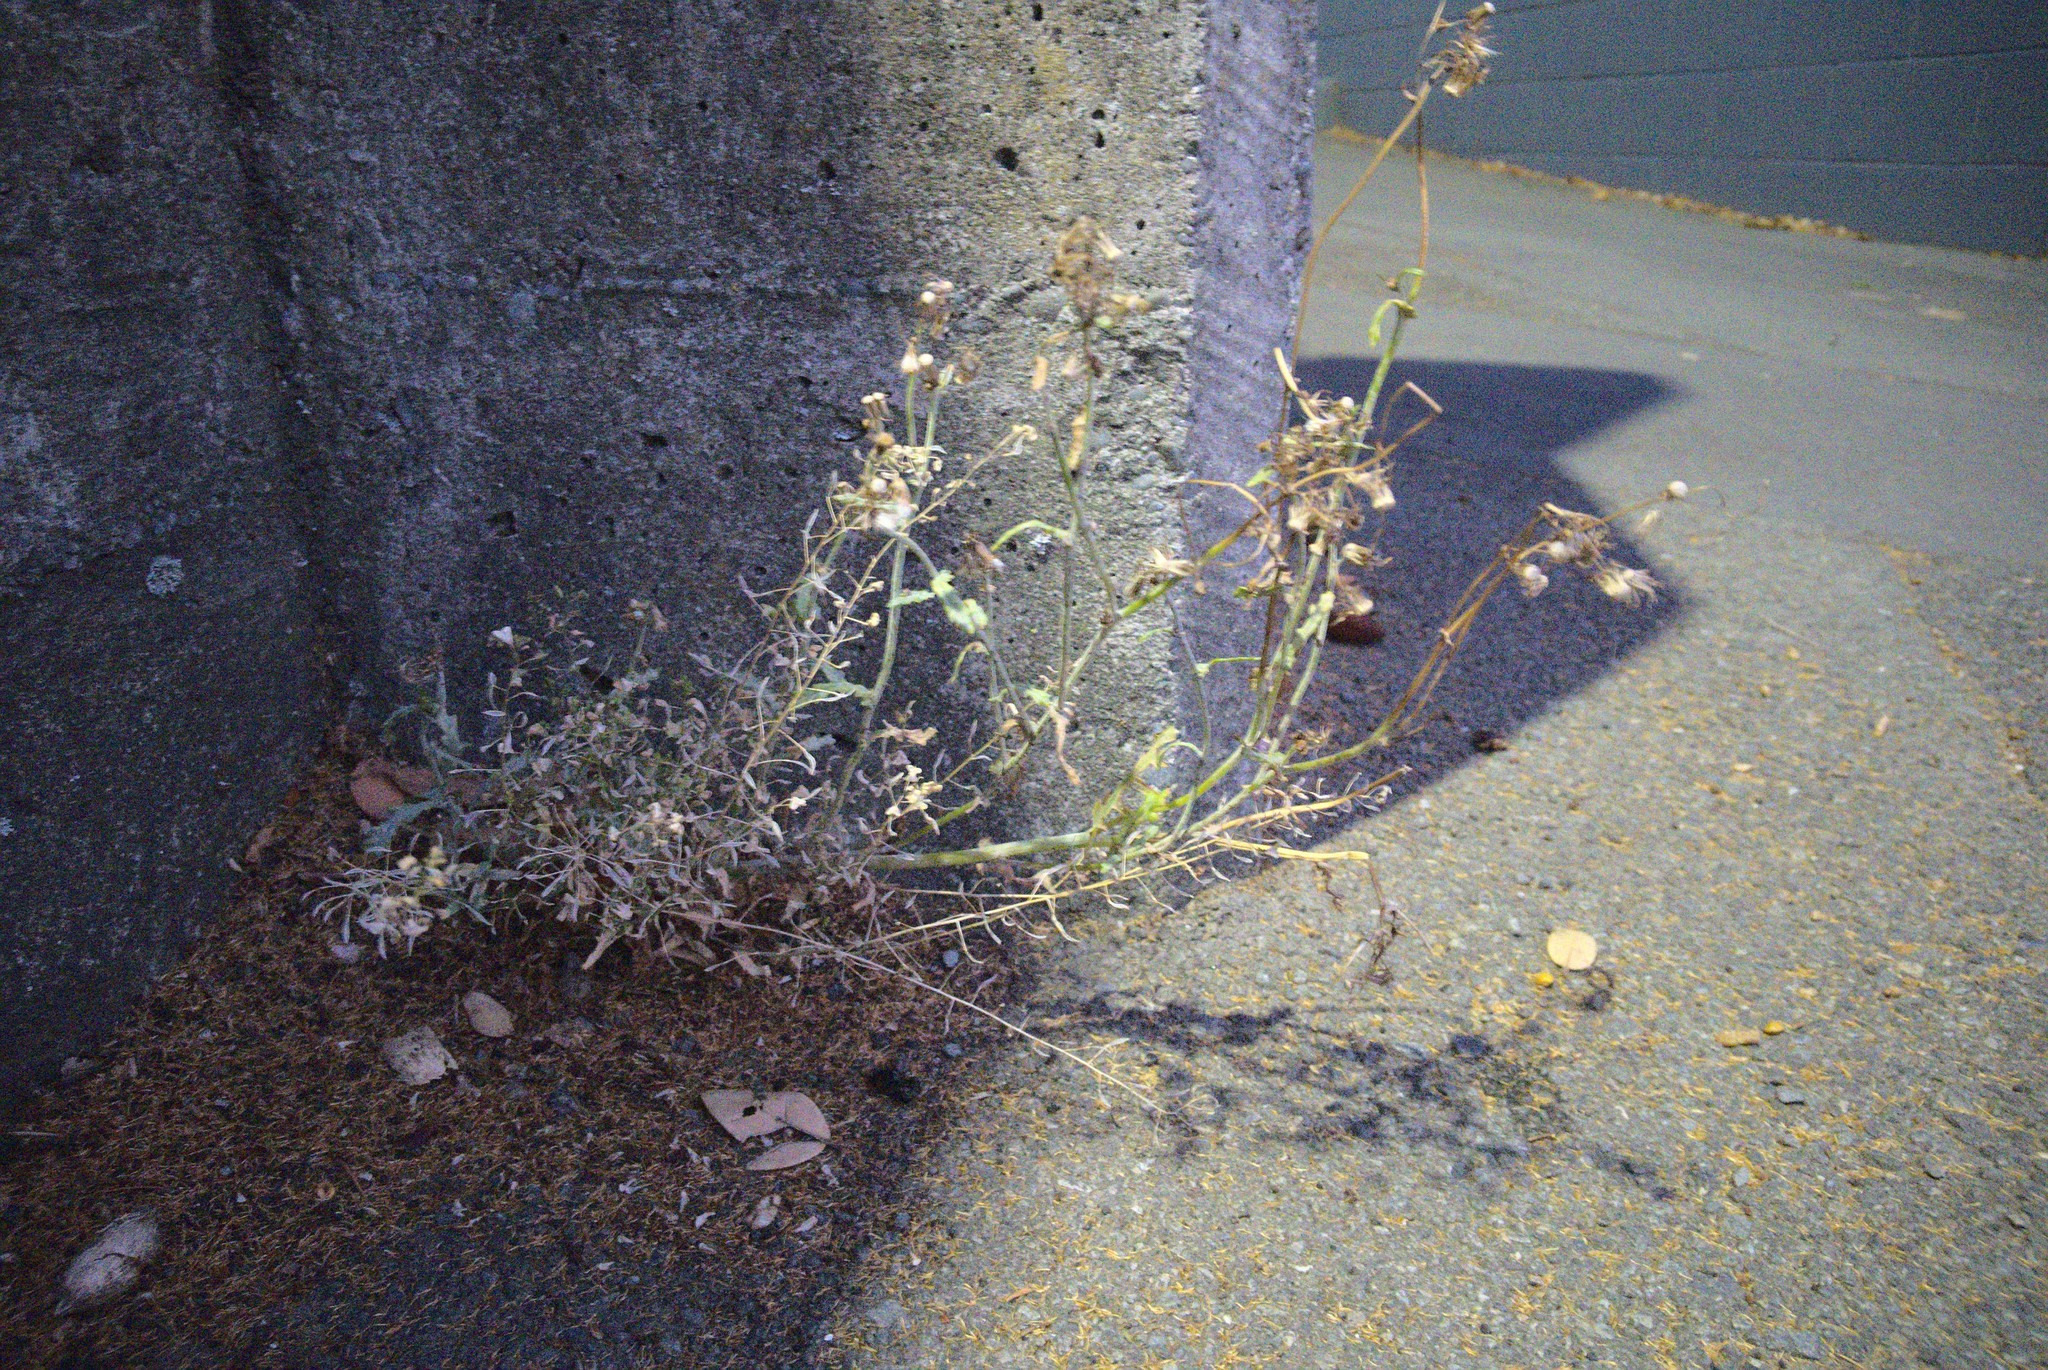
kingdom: Plantae
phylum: Tracheophyta
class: Magnoliopsida
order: Asterales
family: Asteraceae
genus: Senecio
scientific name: Senecio vulgaris
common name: Old-man-in-the-spring
